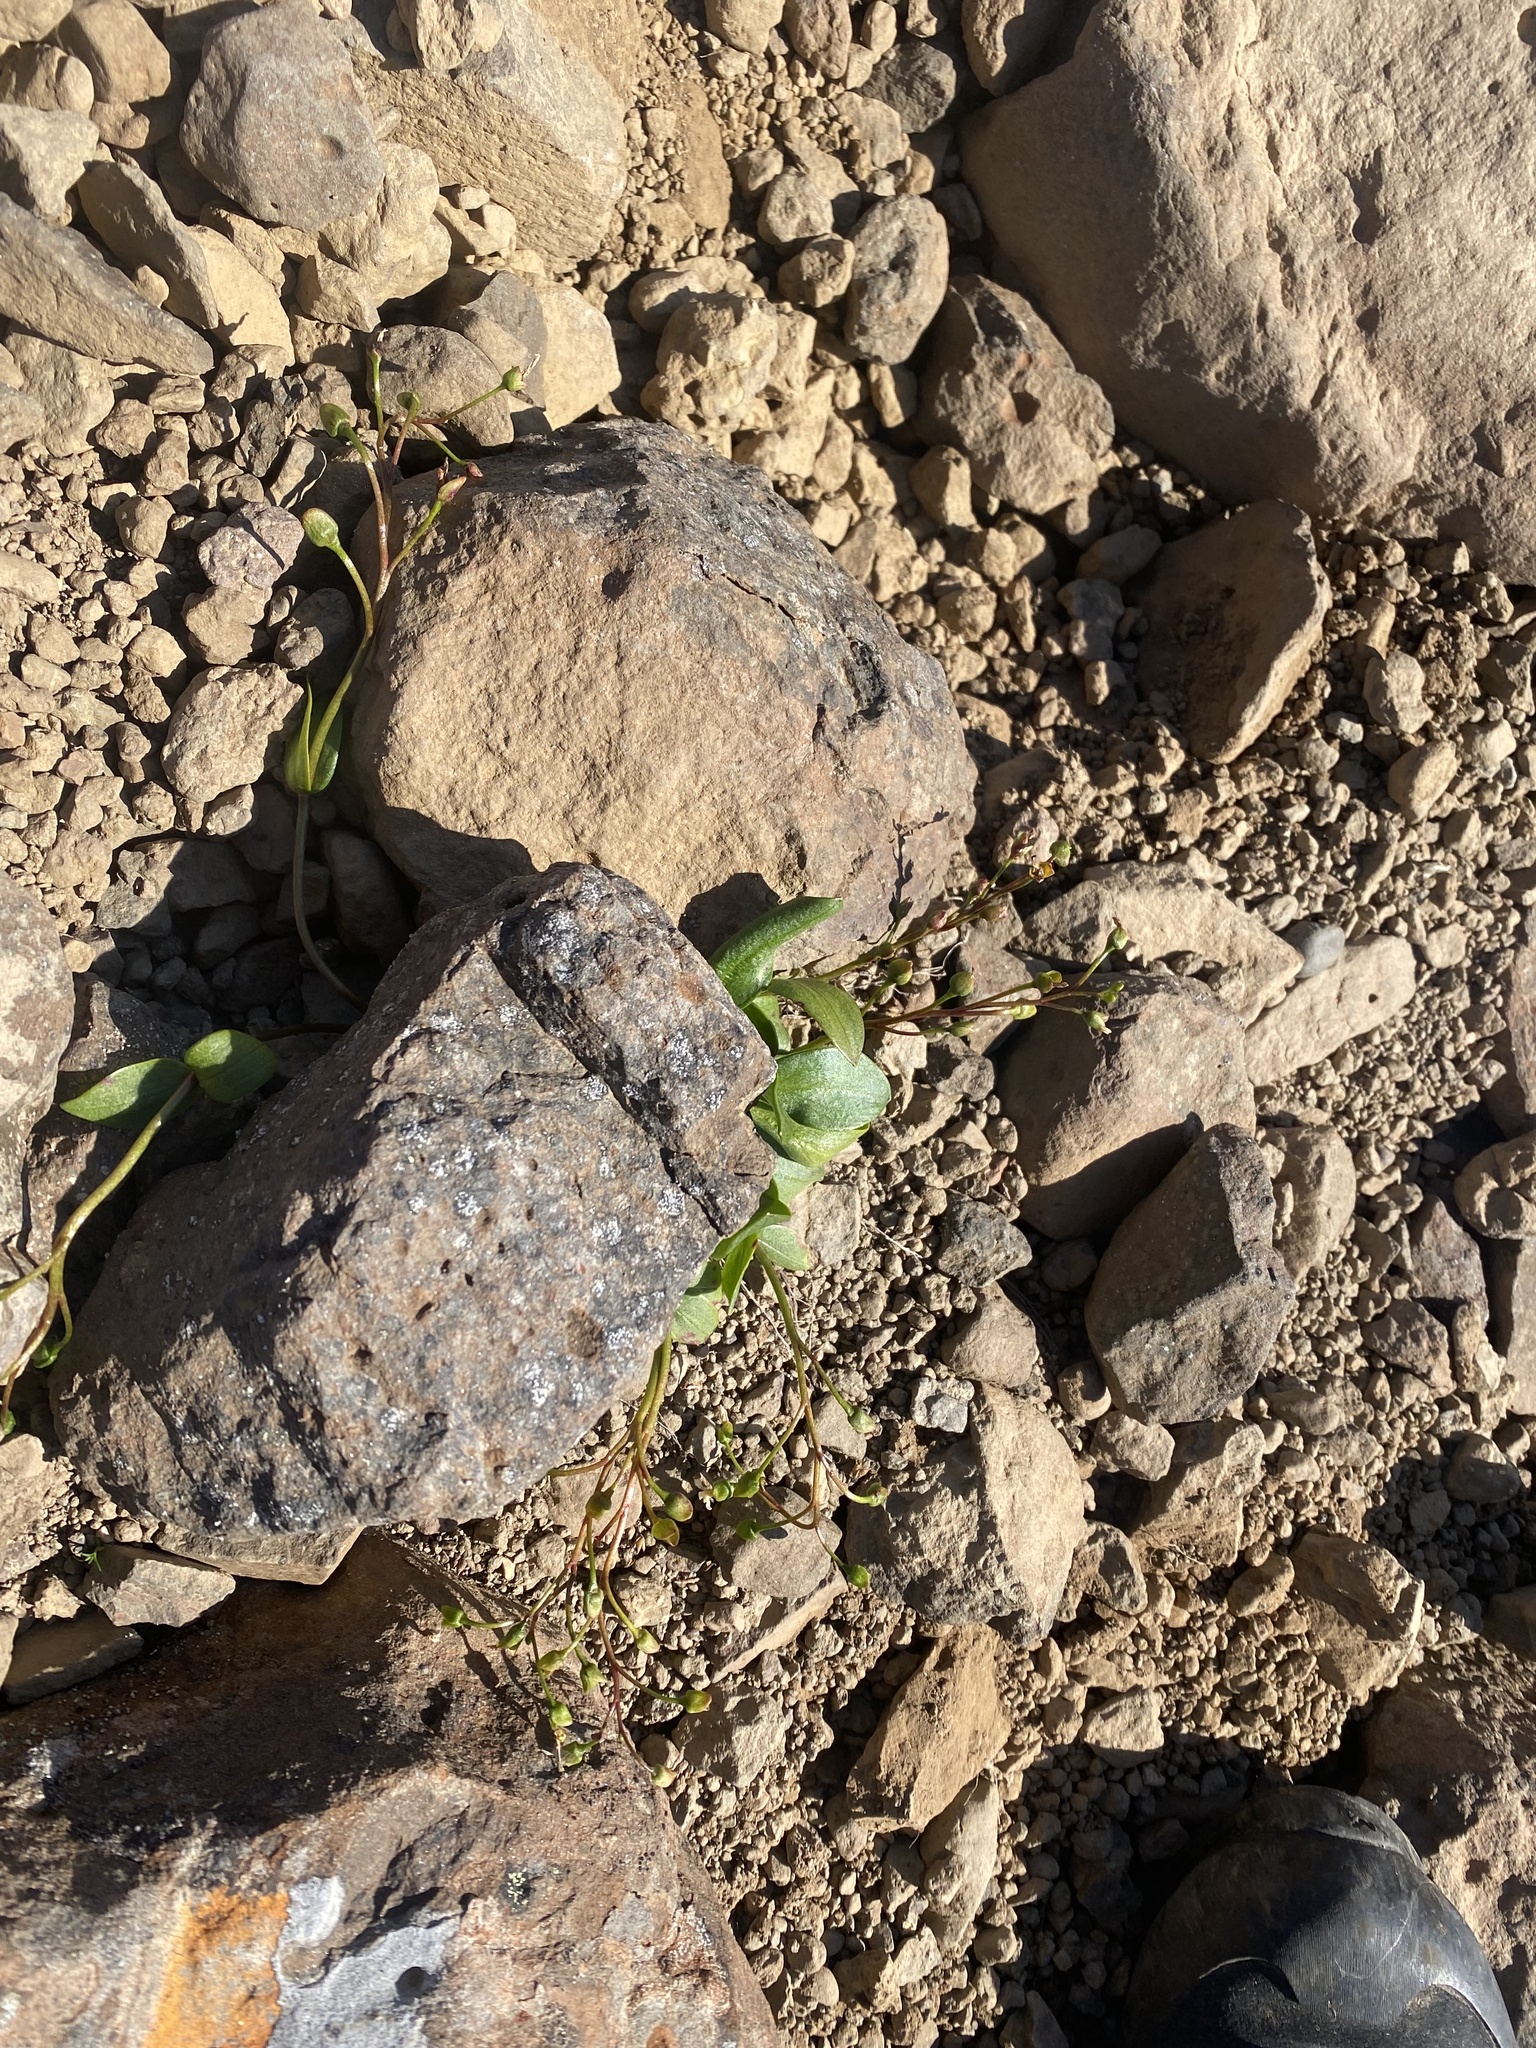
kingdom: Plantae
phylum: Tracheophyta
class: Magnoliopsida
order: Caryophyllales
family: Montiaceae
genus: Claytonia
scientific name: Claytonia joanneana
